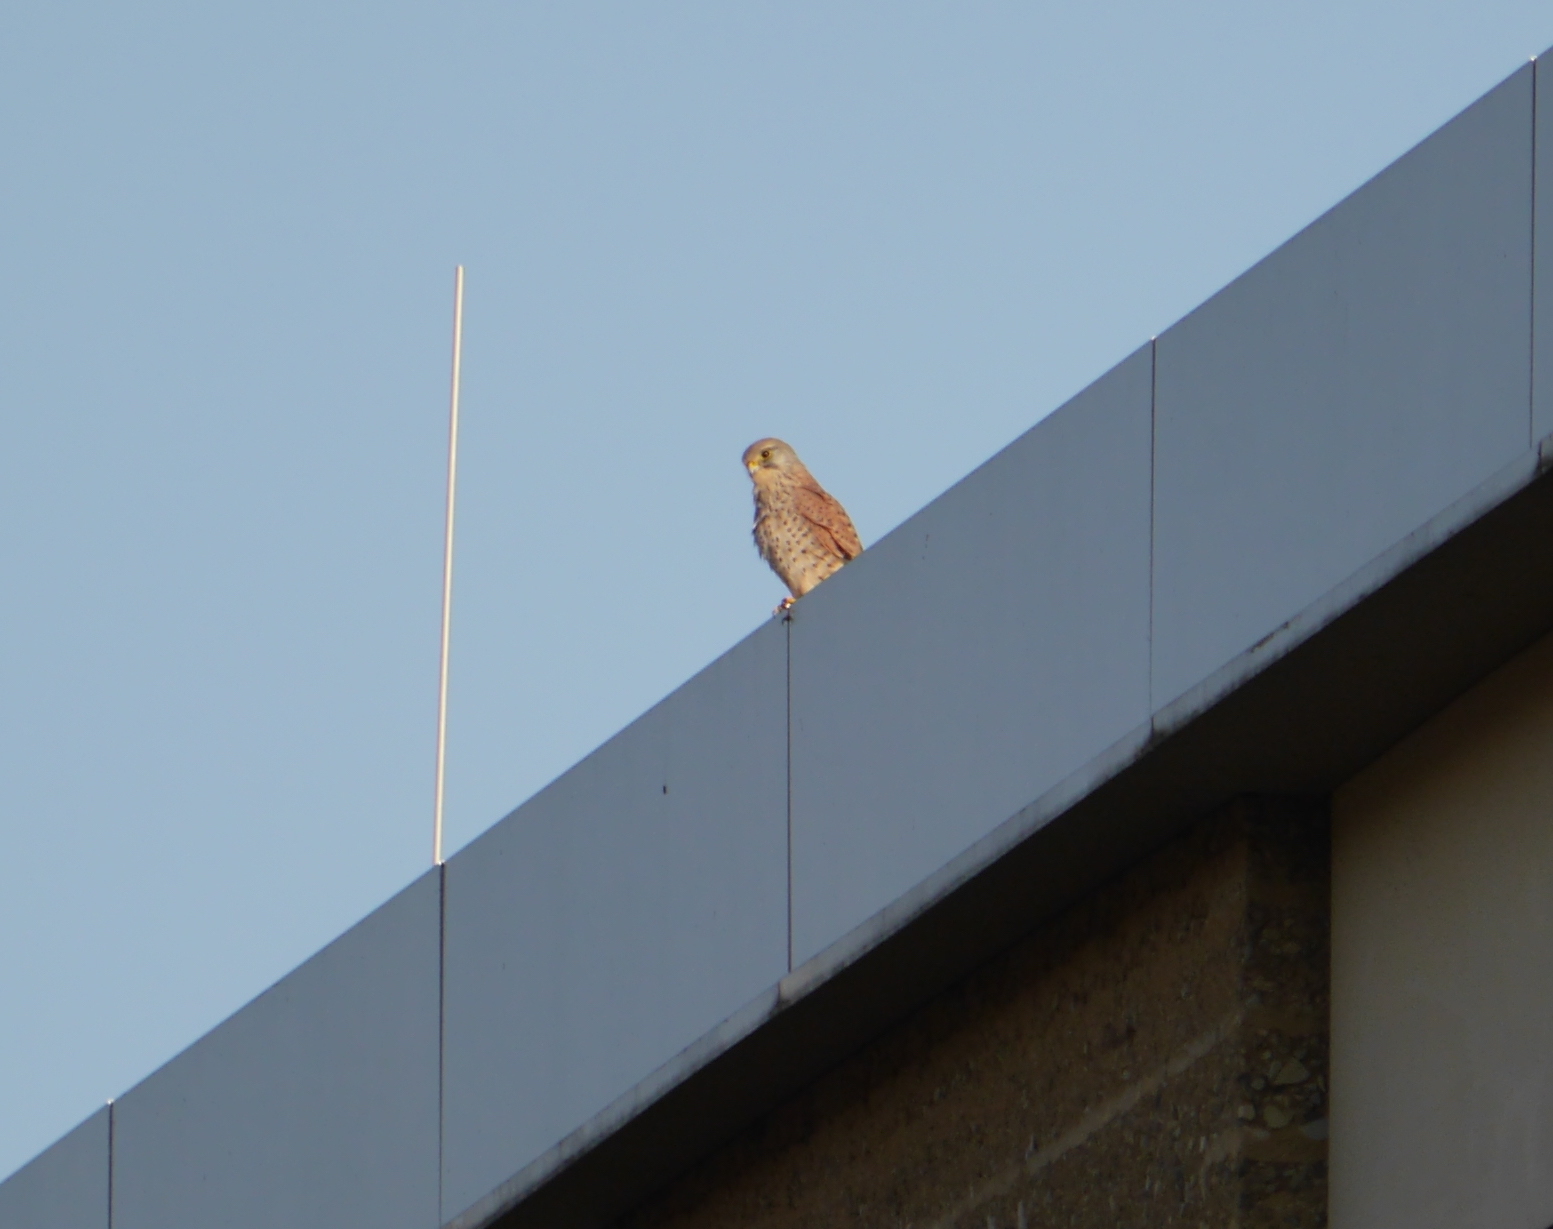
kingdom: Animalia
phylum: Chordata
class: Aves
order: Falconiformes
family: Falconidae
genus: Falco
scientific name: Falco tinnunculus
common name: Common kestrel
